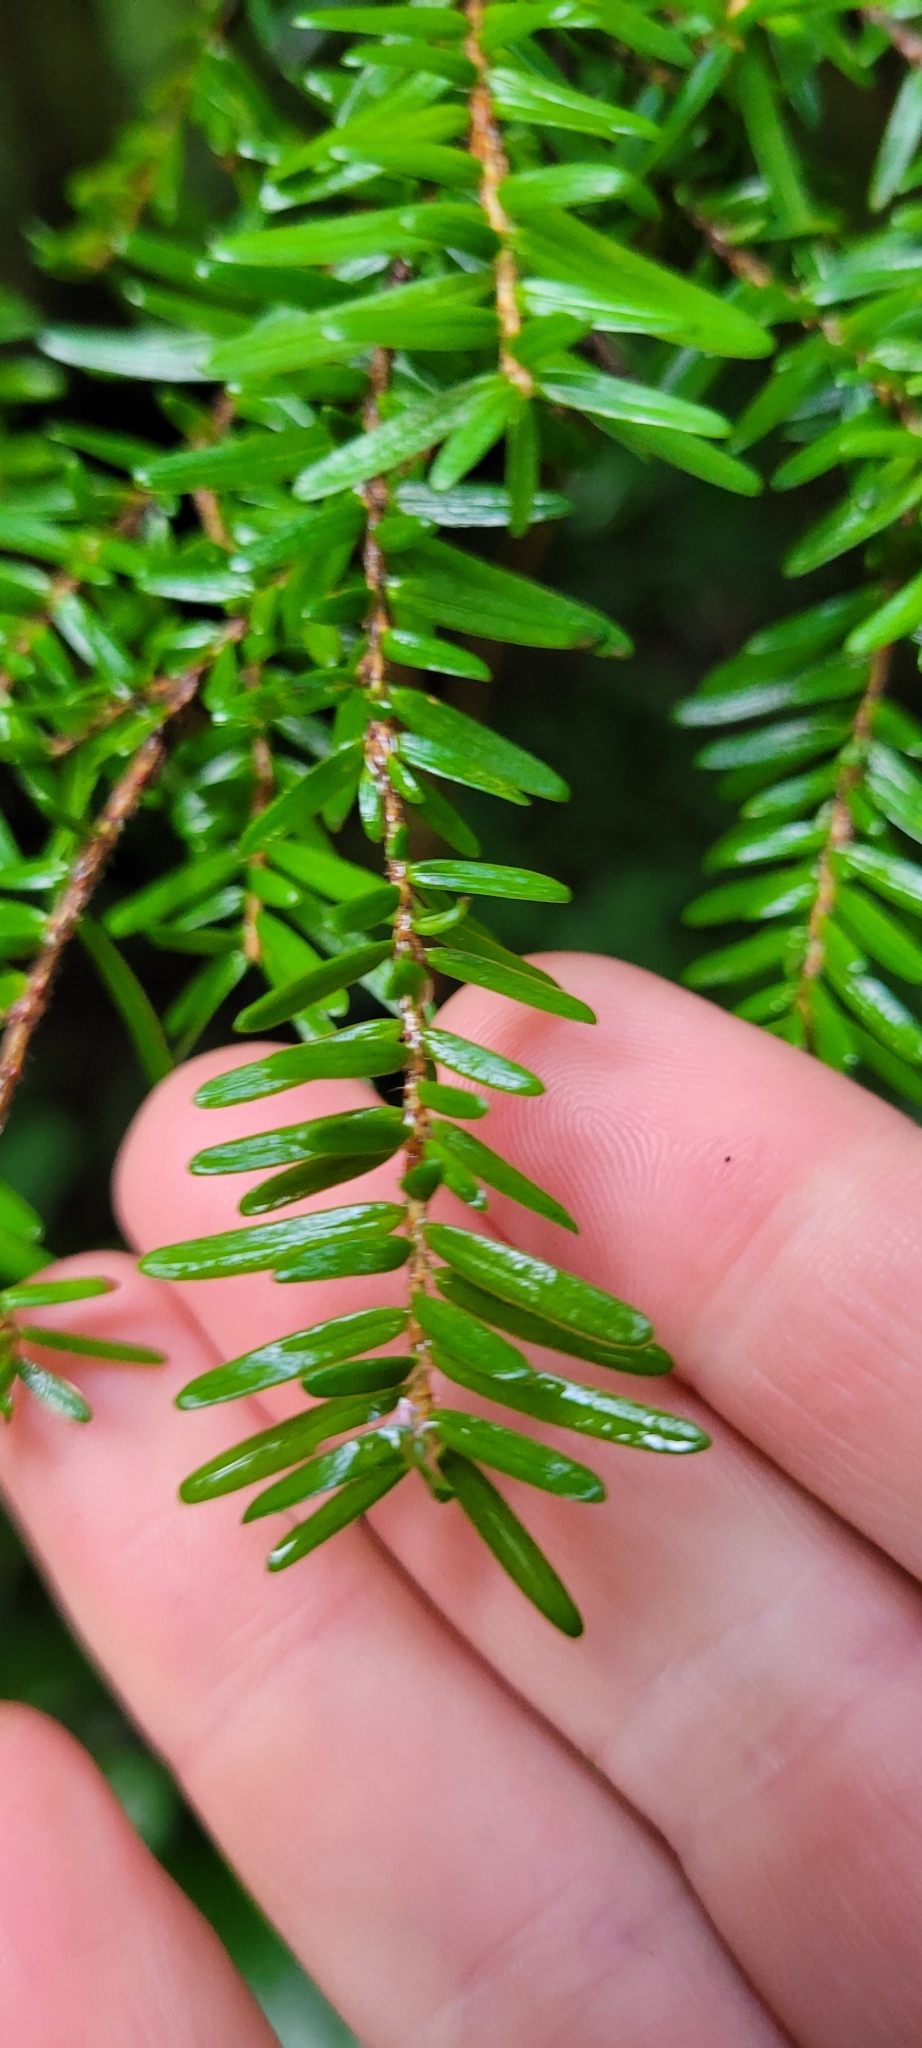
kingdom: Plantae
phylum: Tracheophyta
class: Pinopsida
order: Pinales
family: Pinaceae
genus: Tsuga
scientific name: Tsuga heterophylla
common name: Western hemlock
